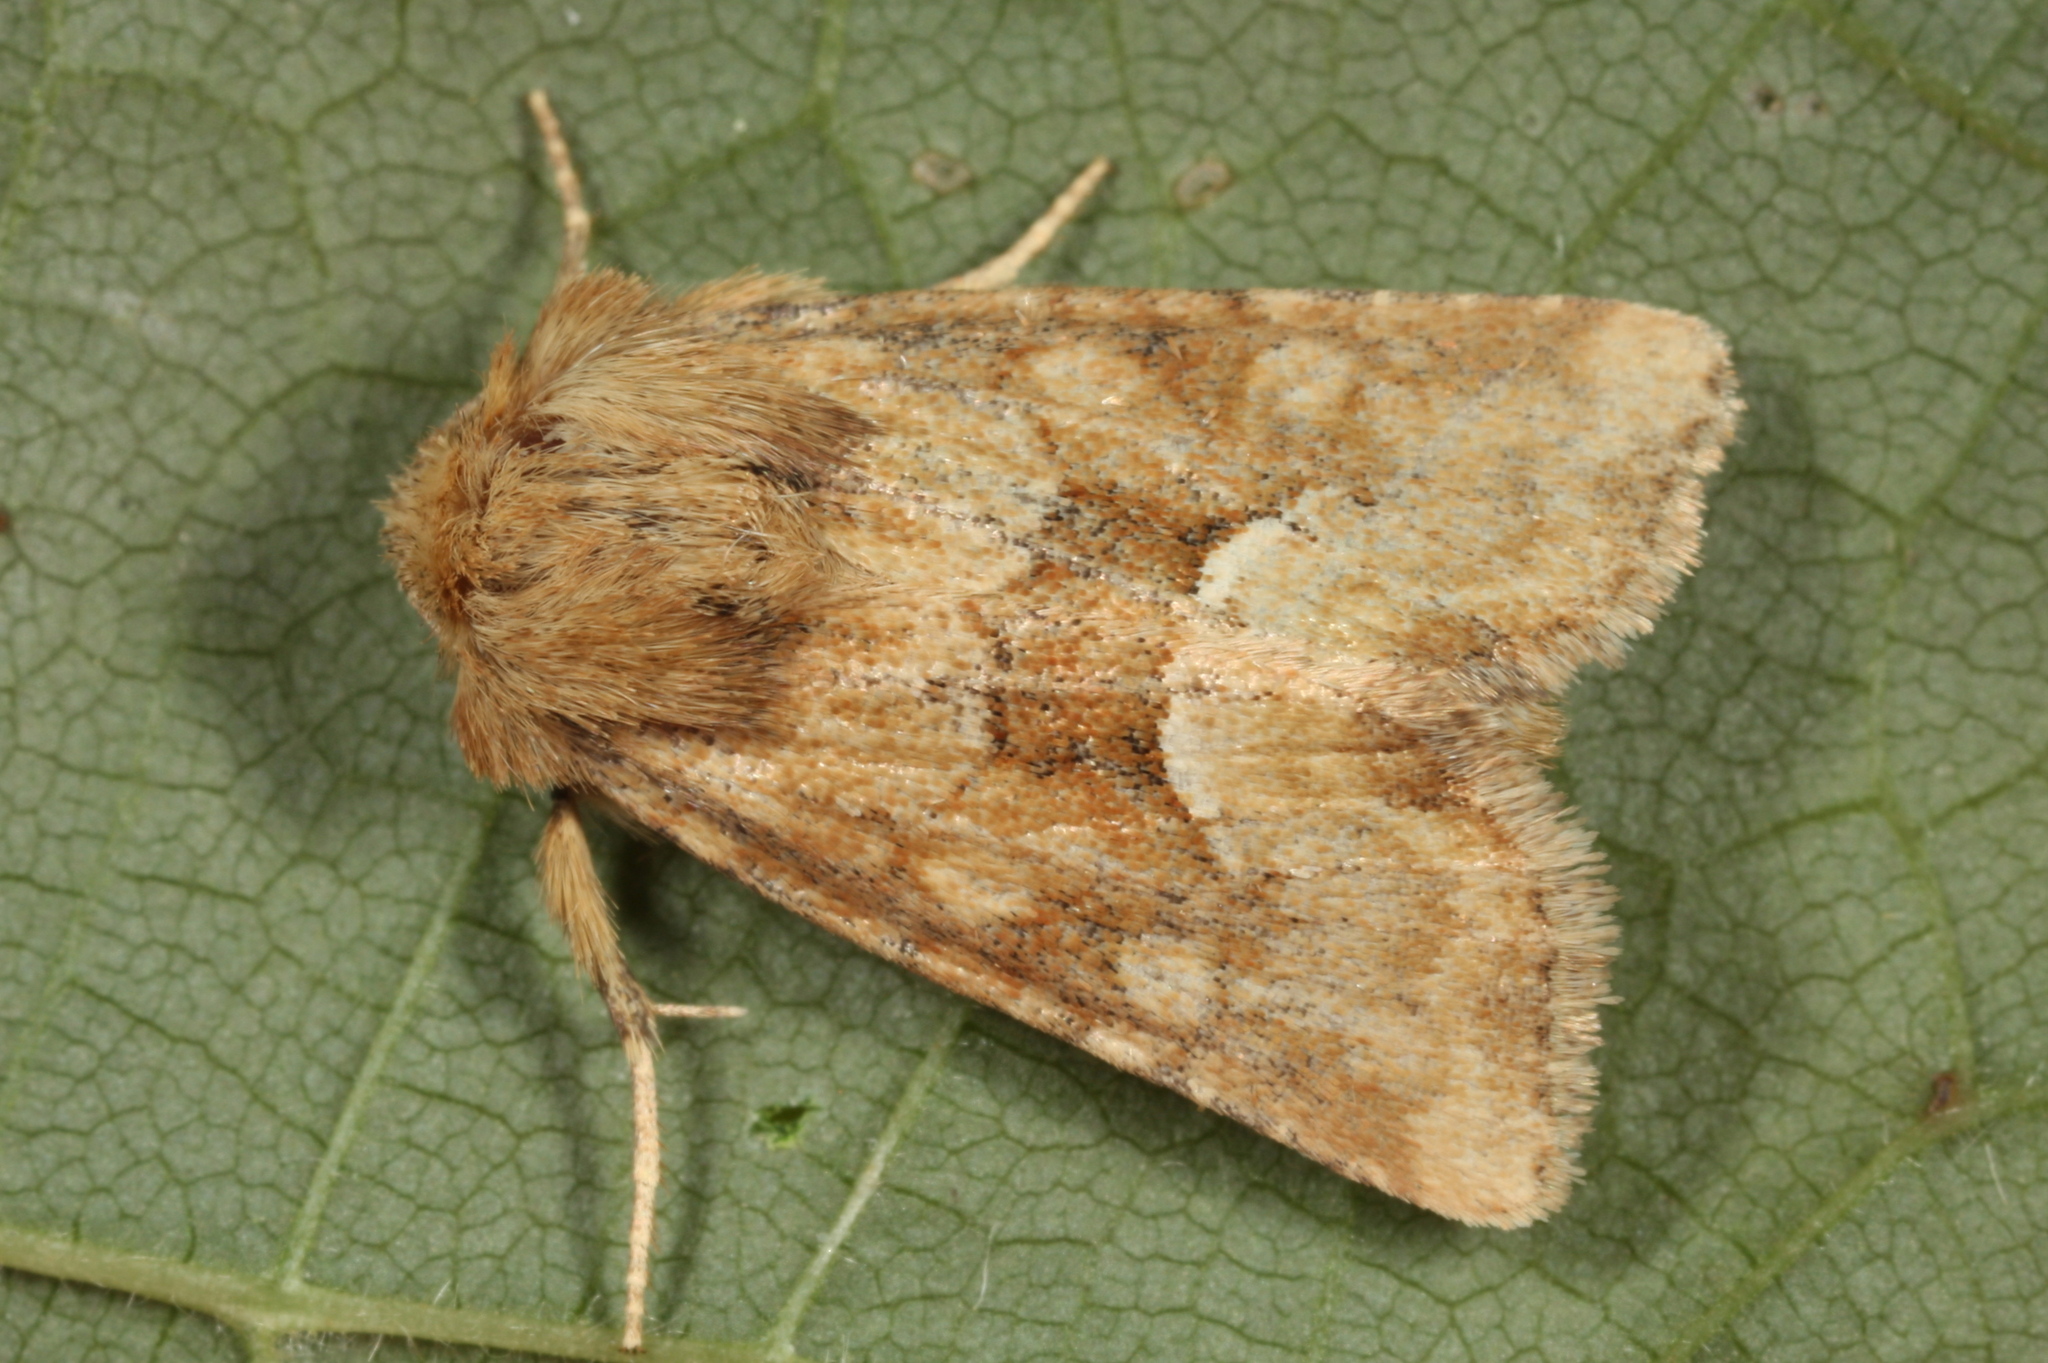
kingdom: Animalia
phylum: Arthropoda
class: Insecta
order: Lepidoptera
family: Noctuidae
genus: Oligia
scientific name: Oligia fasciuncula
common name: Middle-barred minor
